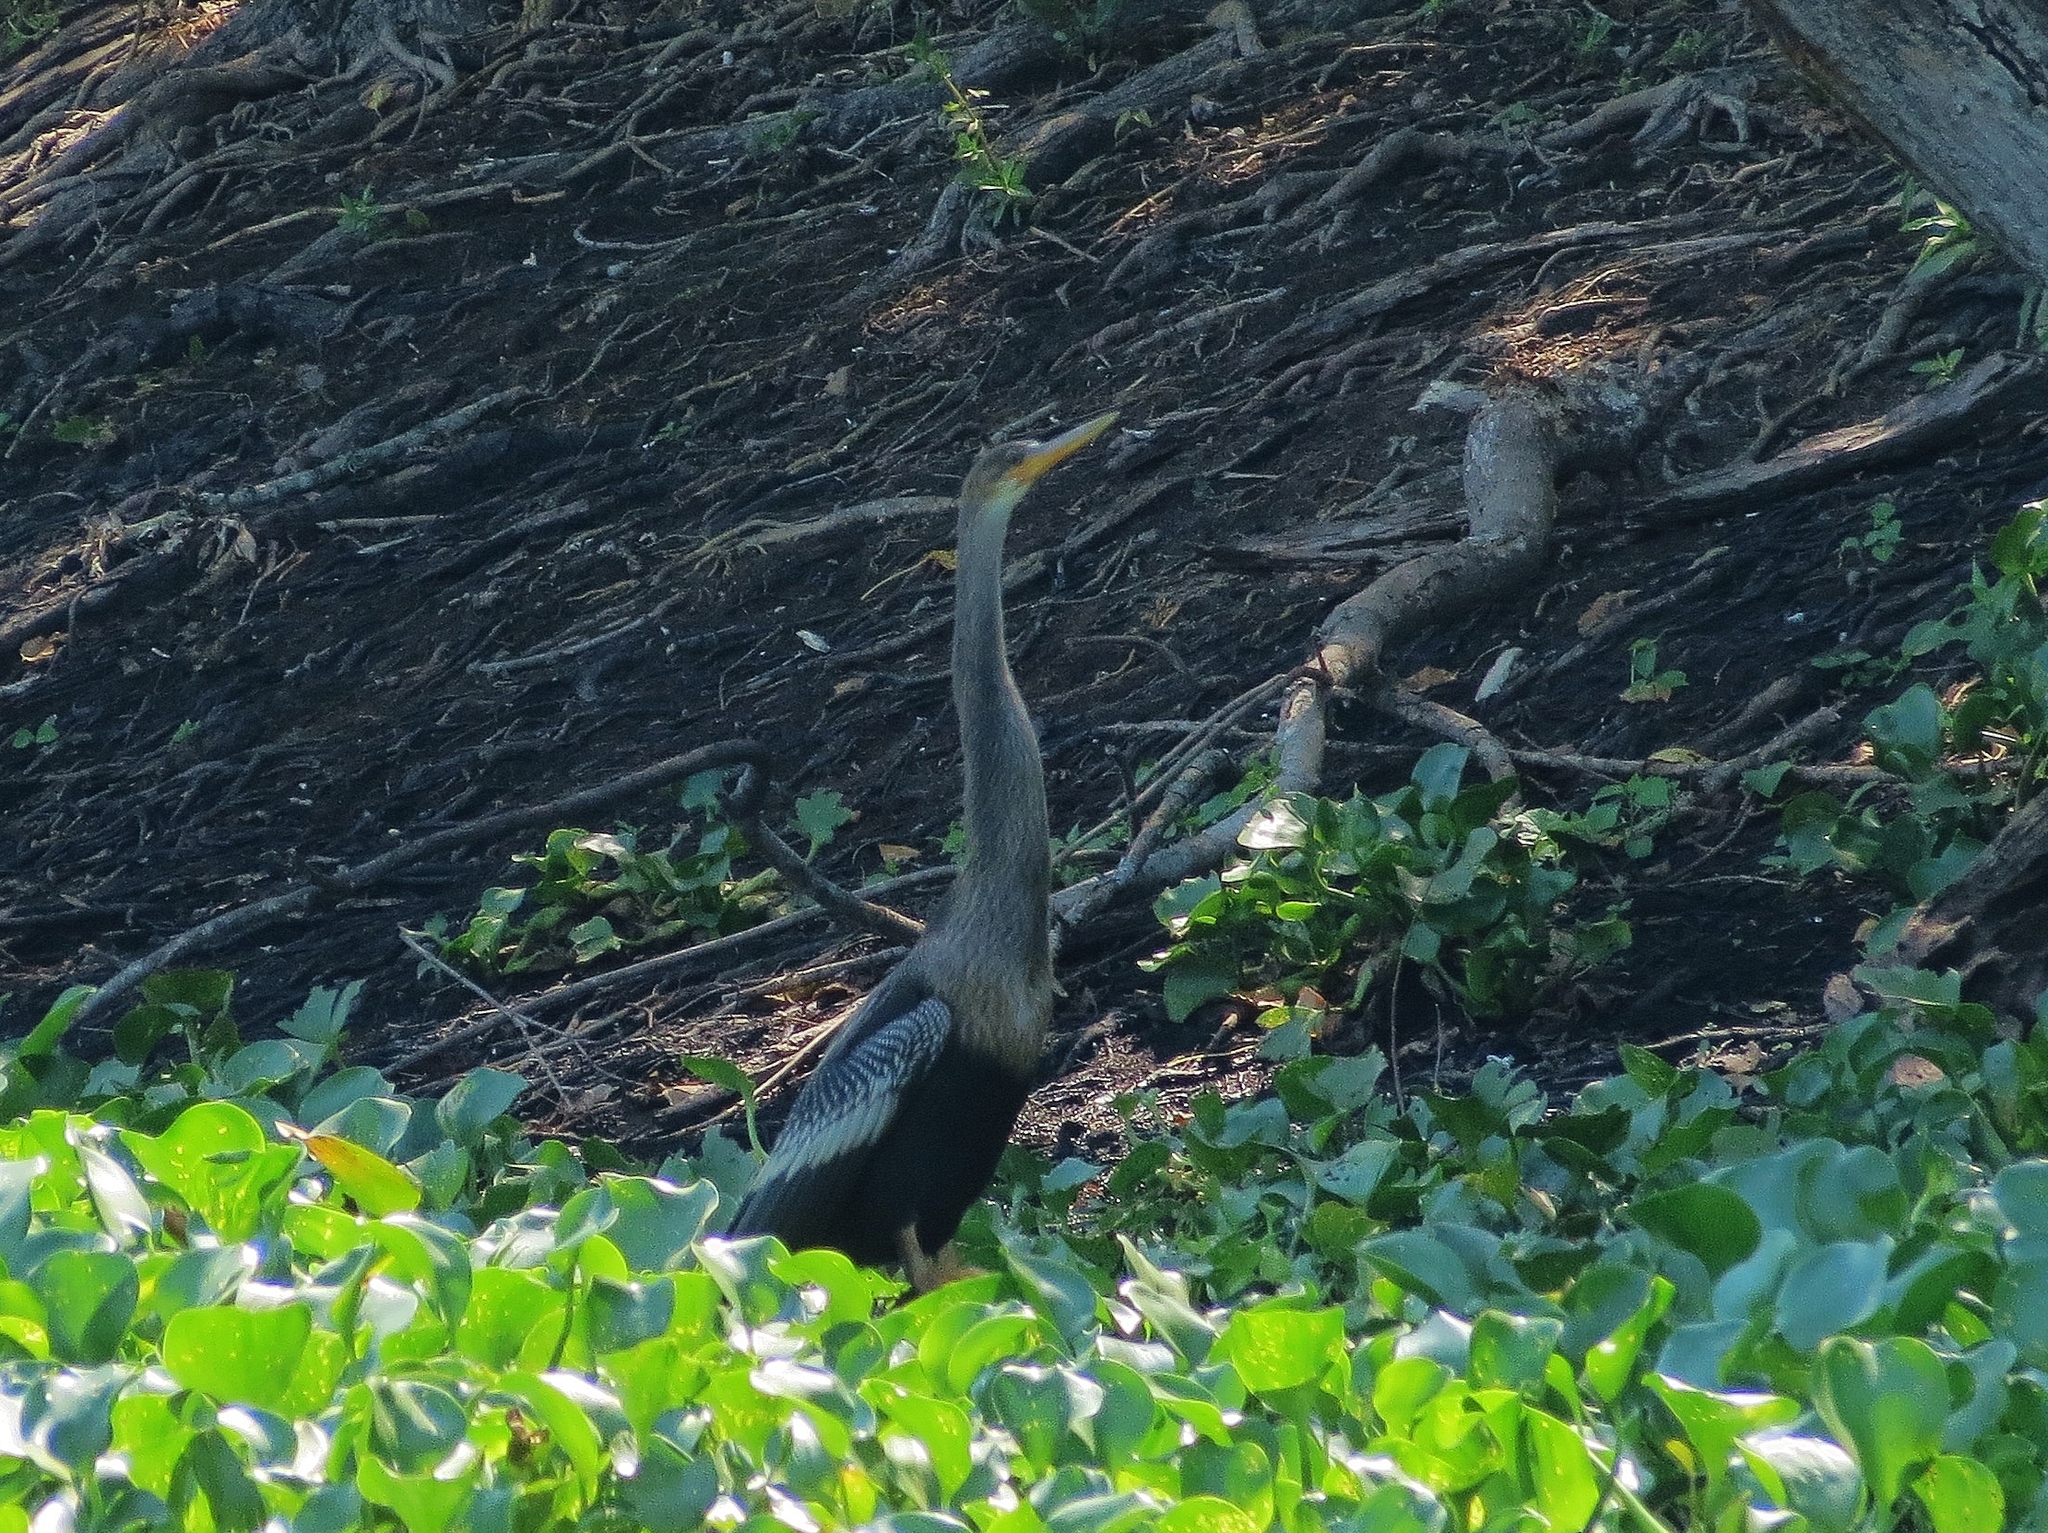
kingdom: Animalia
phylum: Chordata
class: Aves
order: Suliformes
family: Anhingidae
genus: Anhinga
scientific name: Anhinga anhinga
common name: Anhinga
